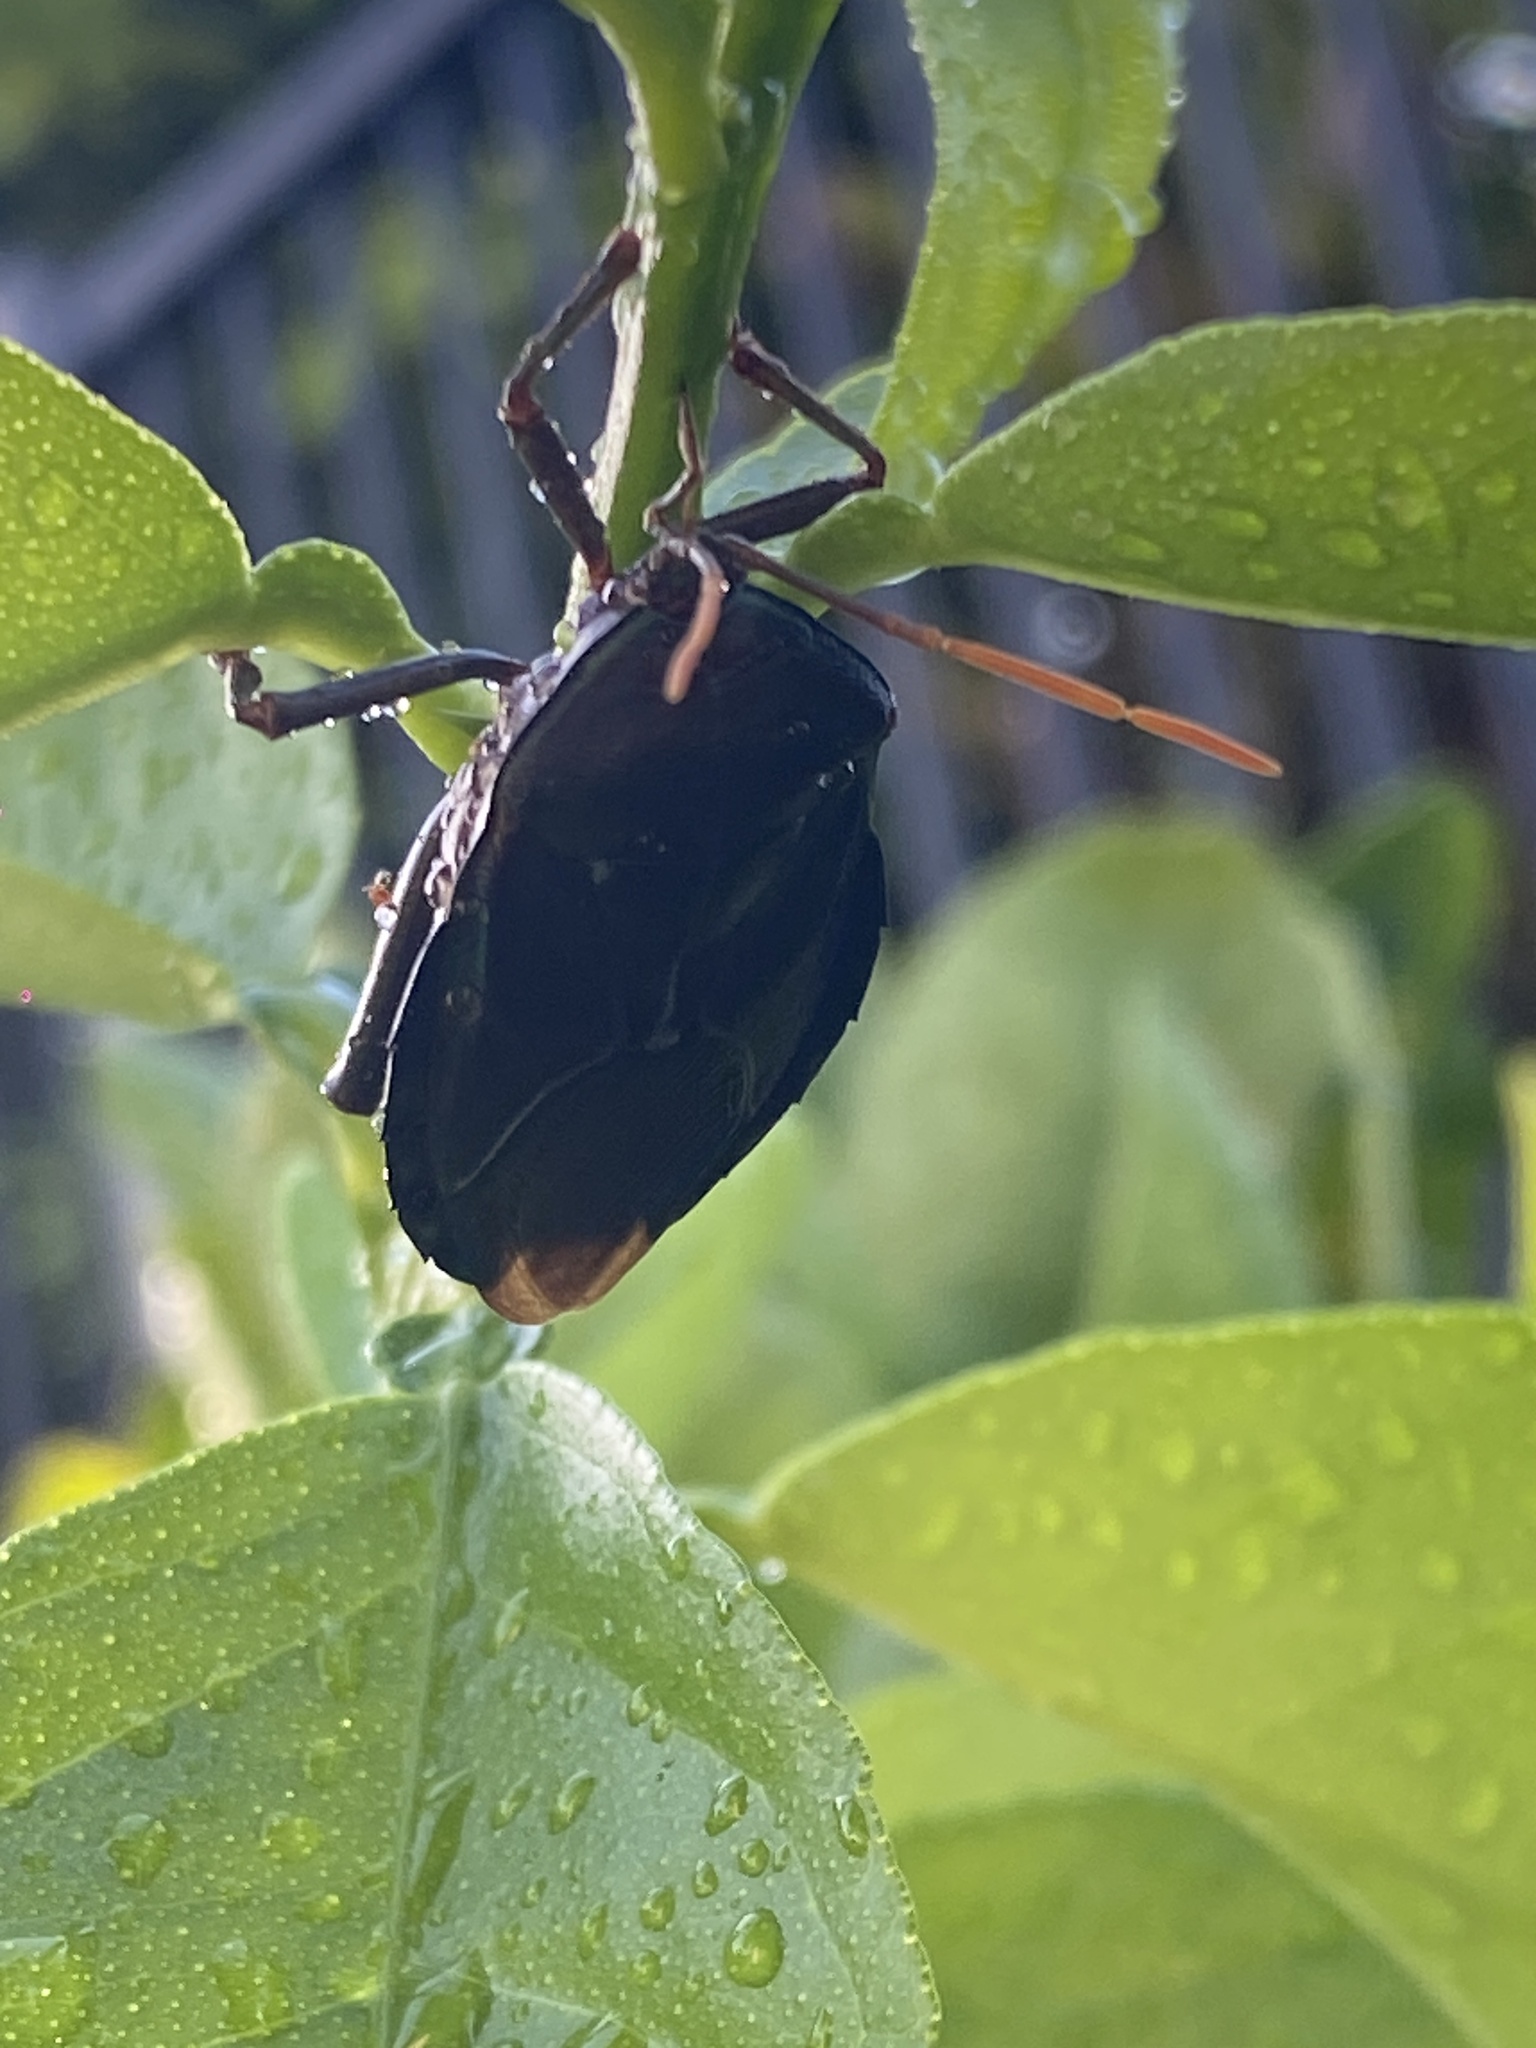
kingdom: Animalia
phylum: Arthropoda
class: Insecta
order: Hemiptera
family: Tessaratomidae
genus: Musgraveia
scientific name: Musgraveia sulciventris
